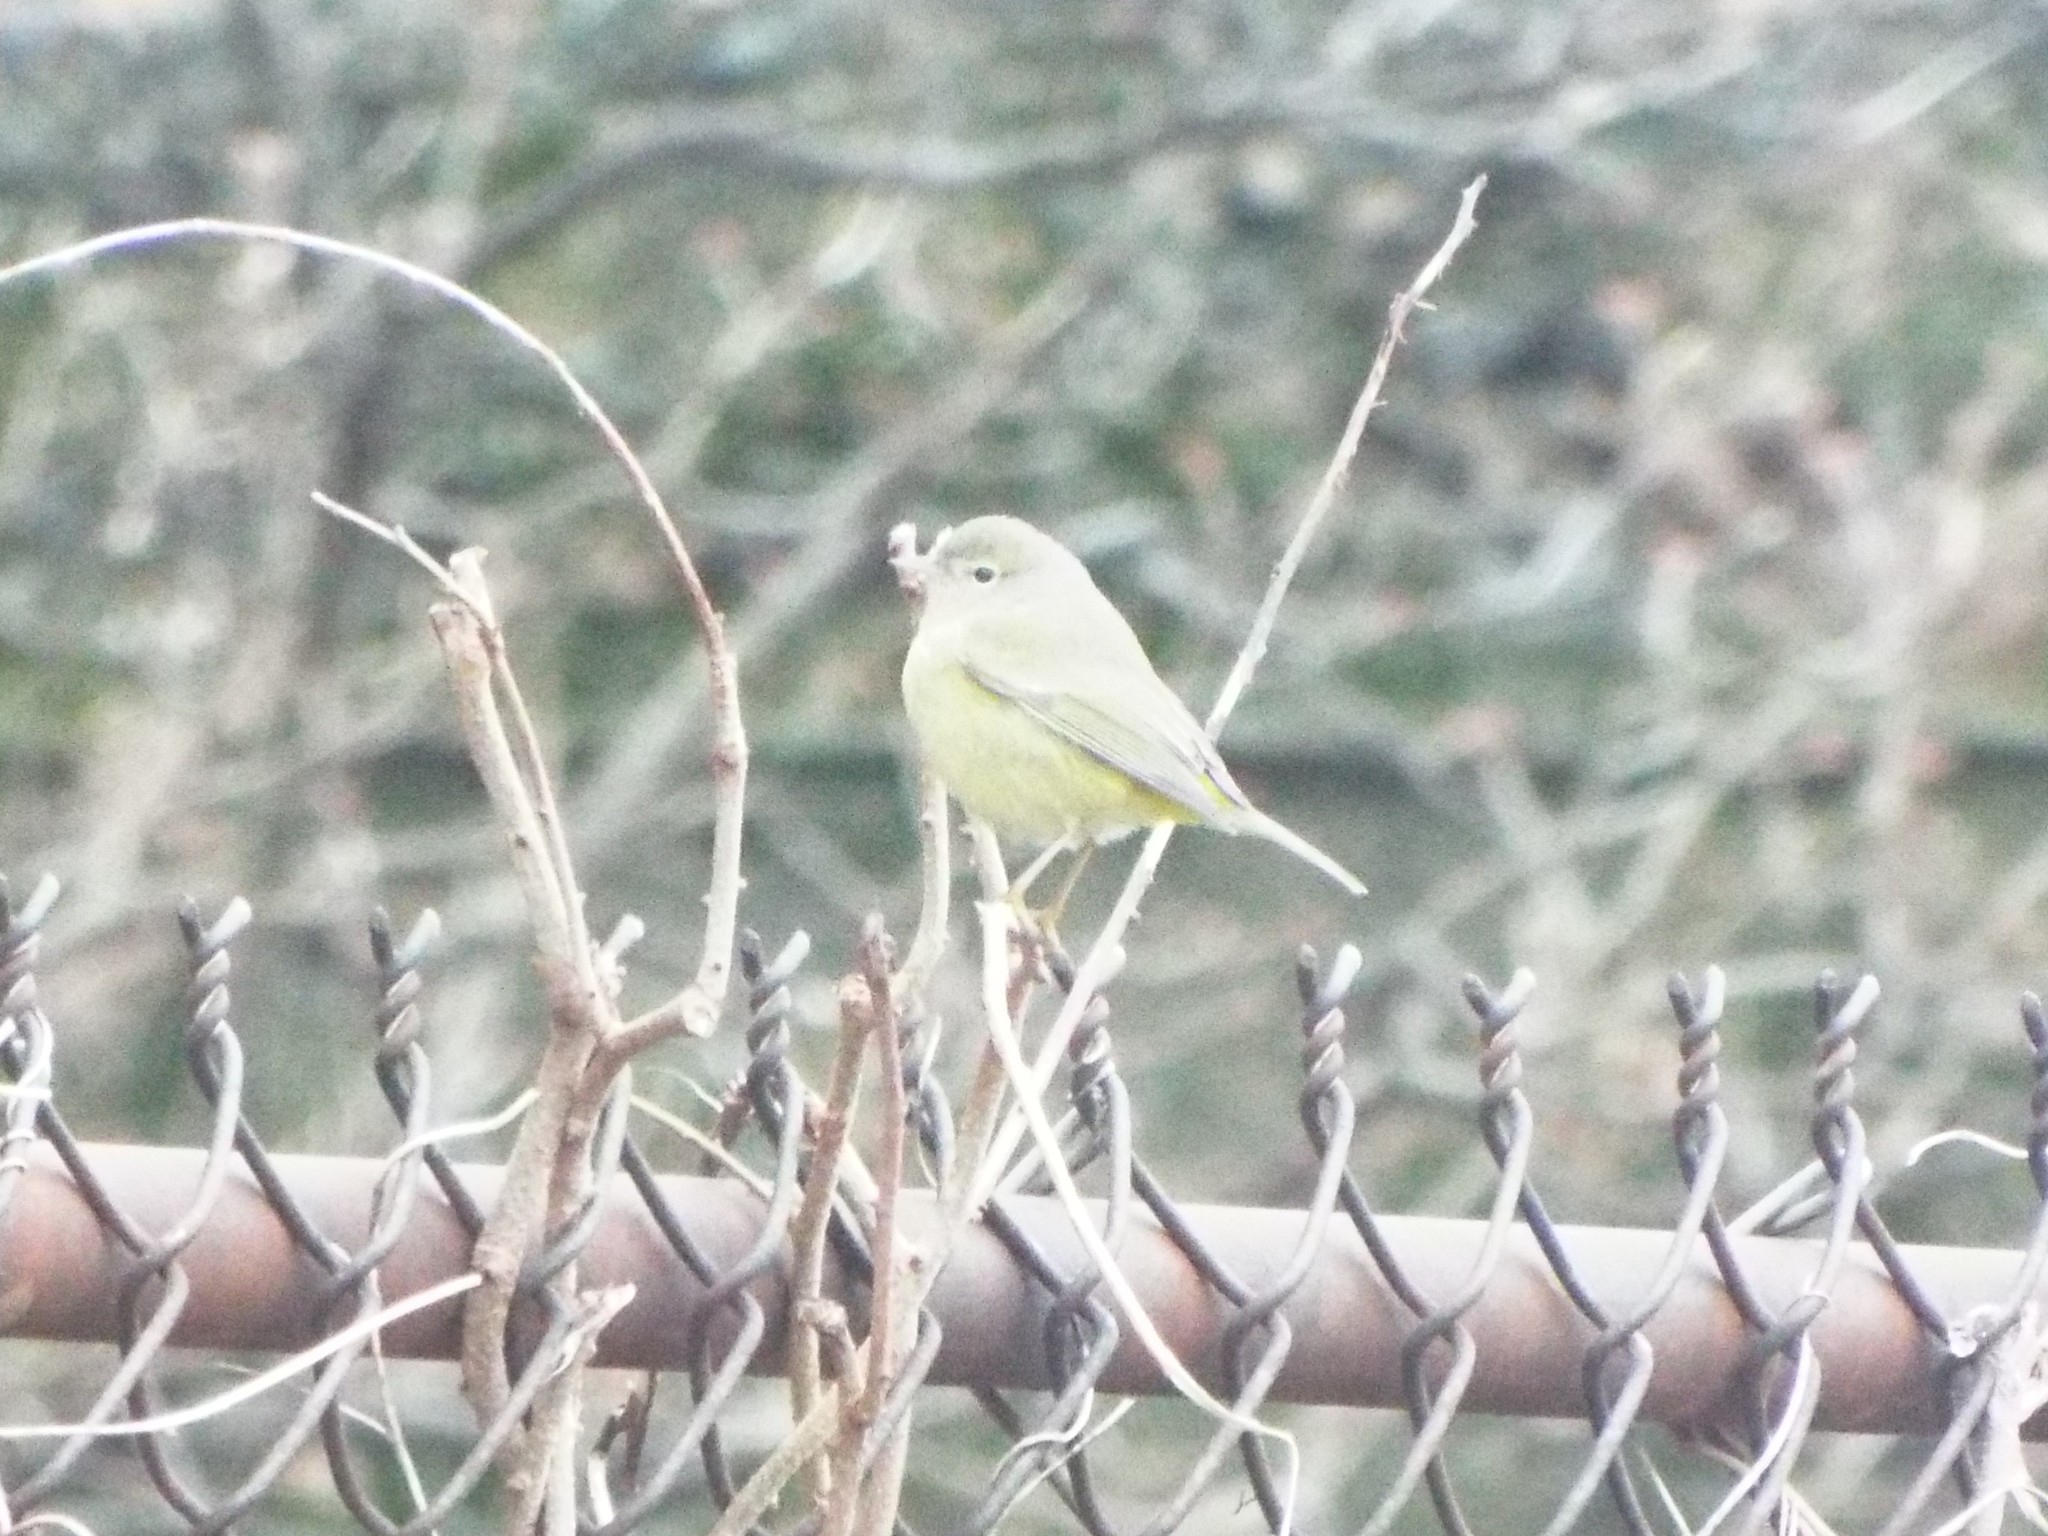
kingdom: Animalia
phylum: Chordata
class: Aves
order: Passeriformes
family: Parulidae
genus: Leiothlypis
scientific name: Leiothlypis celata
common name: Orange-crowned warbler
